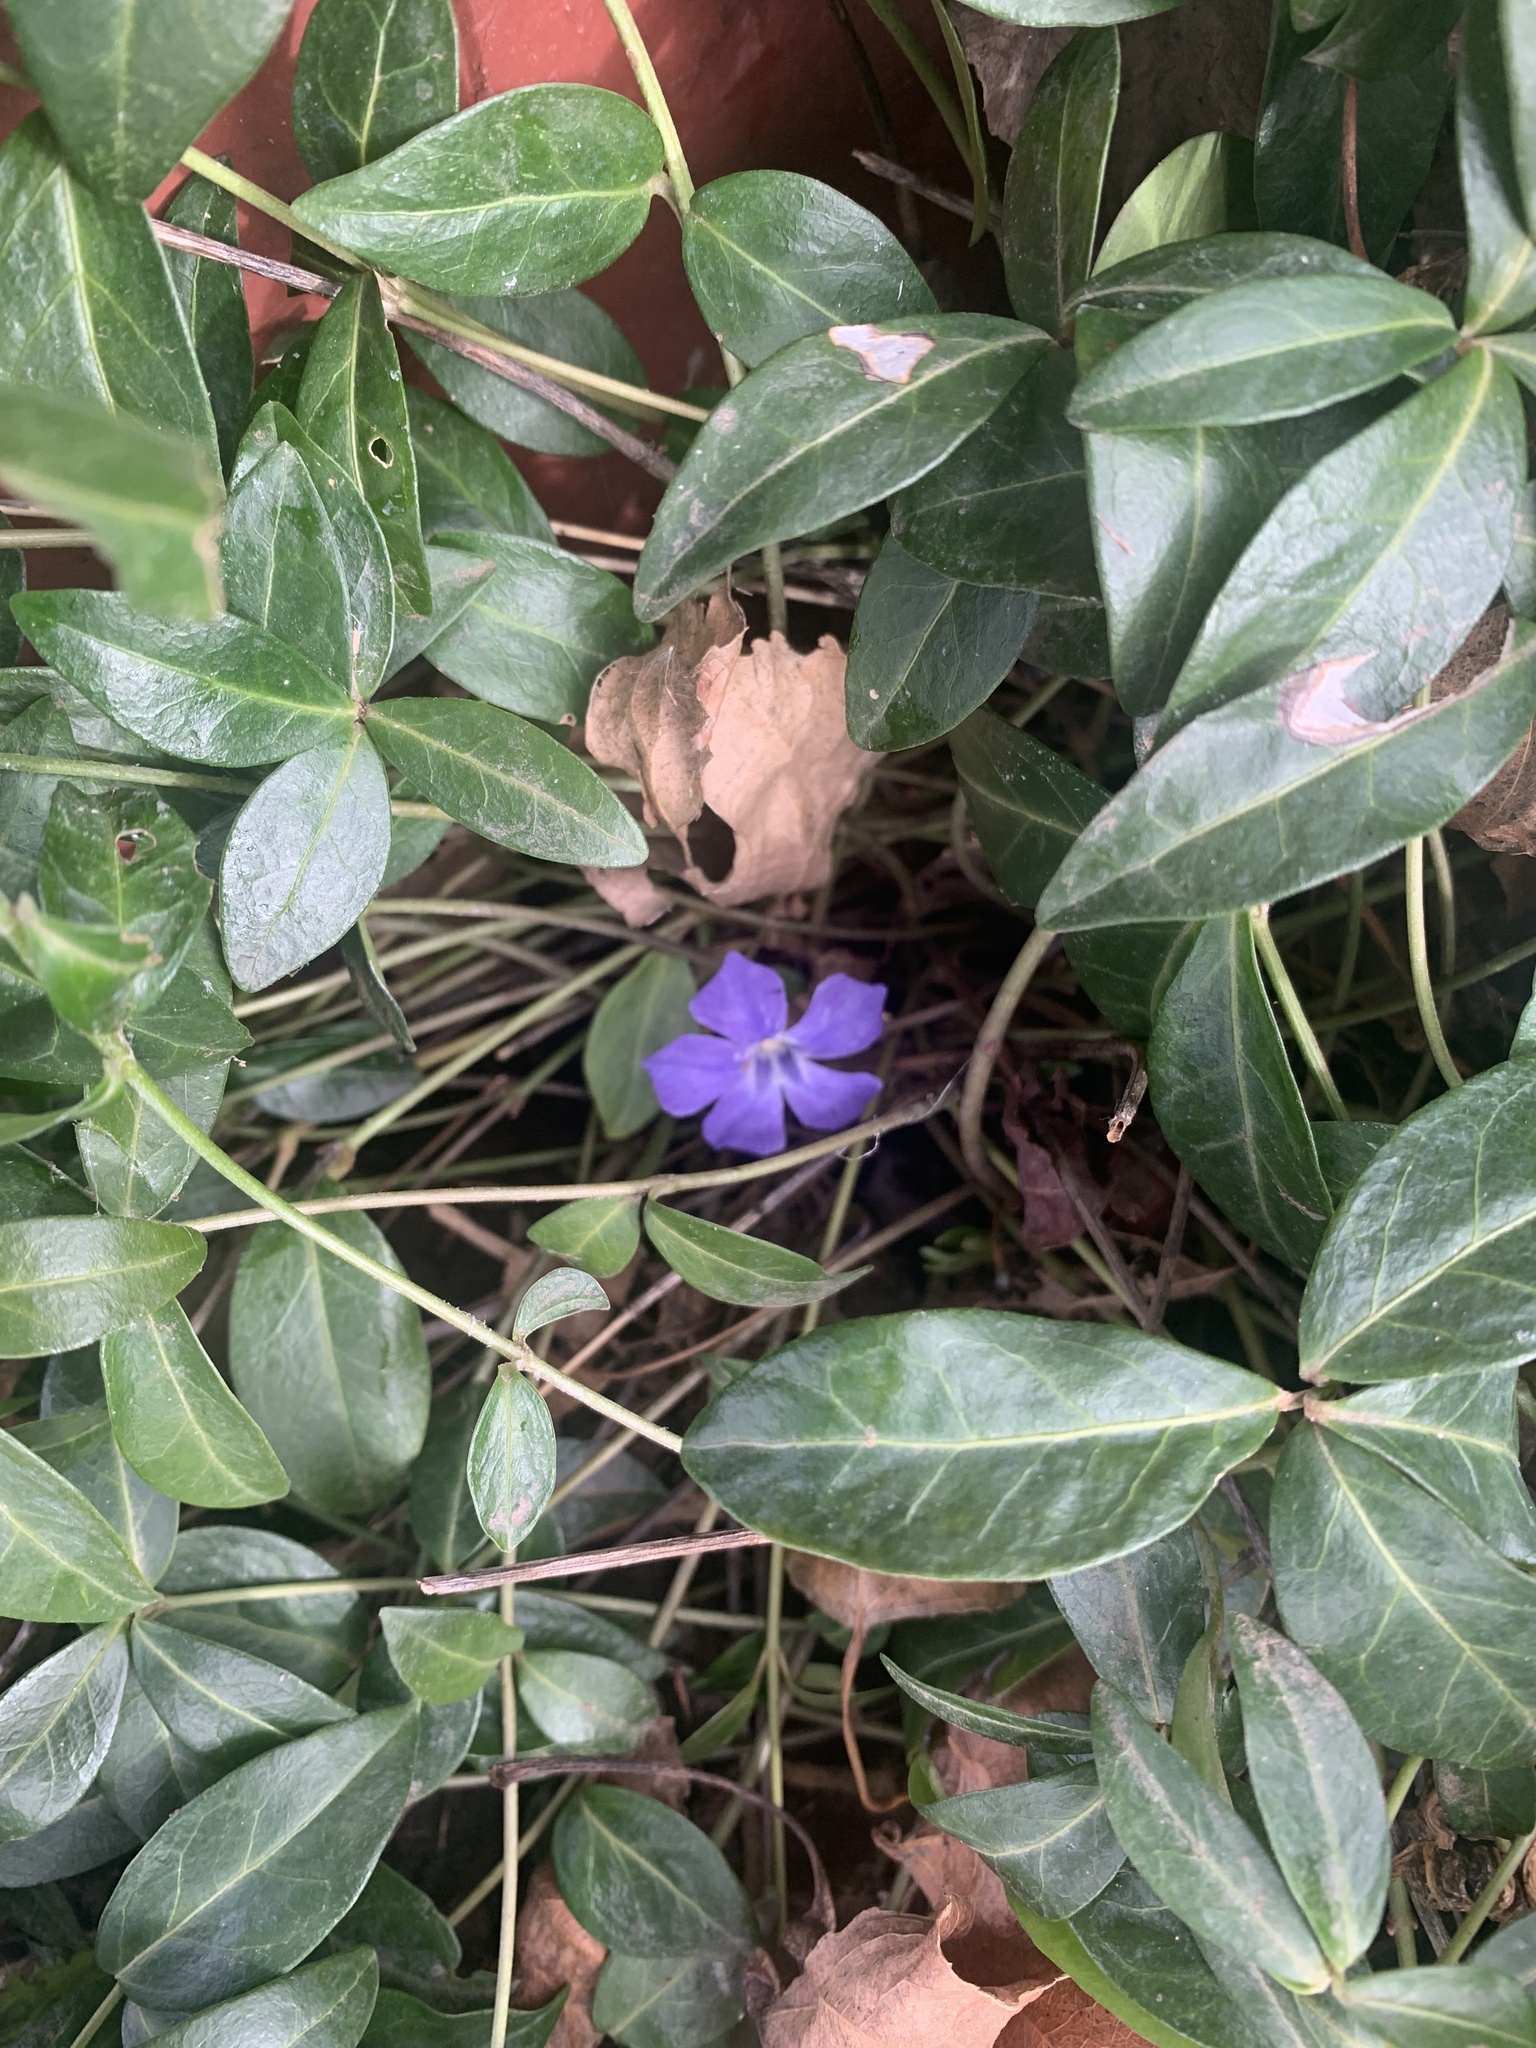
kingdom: Plantae
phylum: Tracheophyta
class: Magnoliopsida
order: Gentianales
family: Apocynaceae
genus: Vinca
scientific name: Vinca minor
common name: Lesser periwinkle
